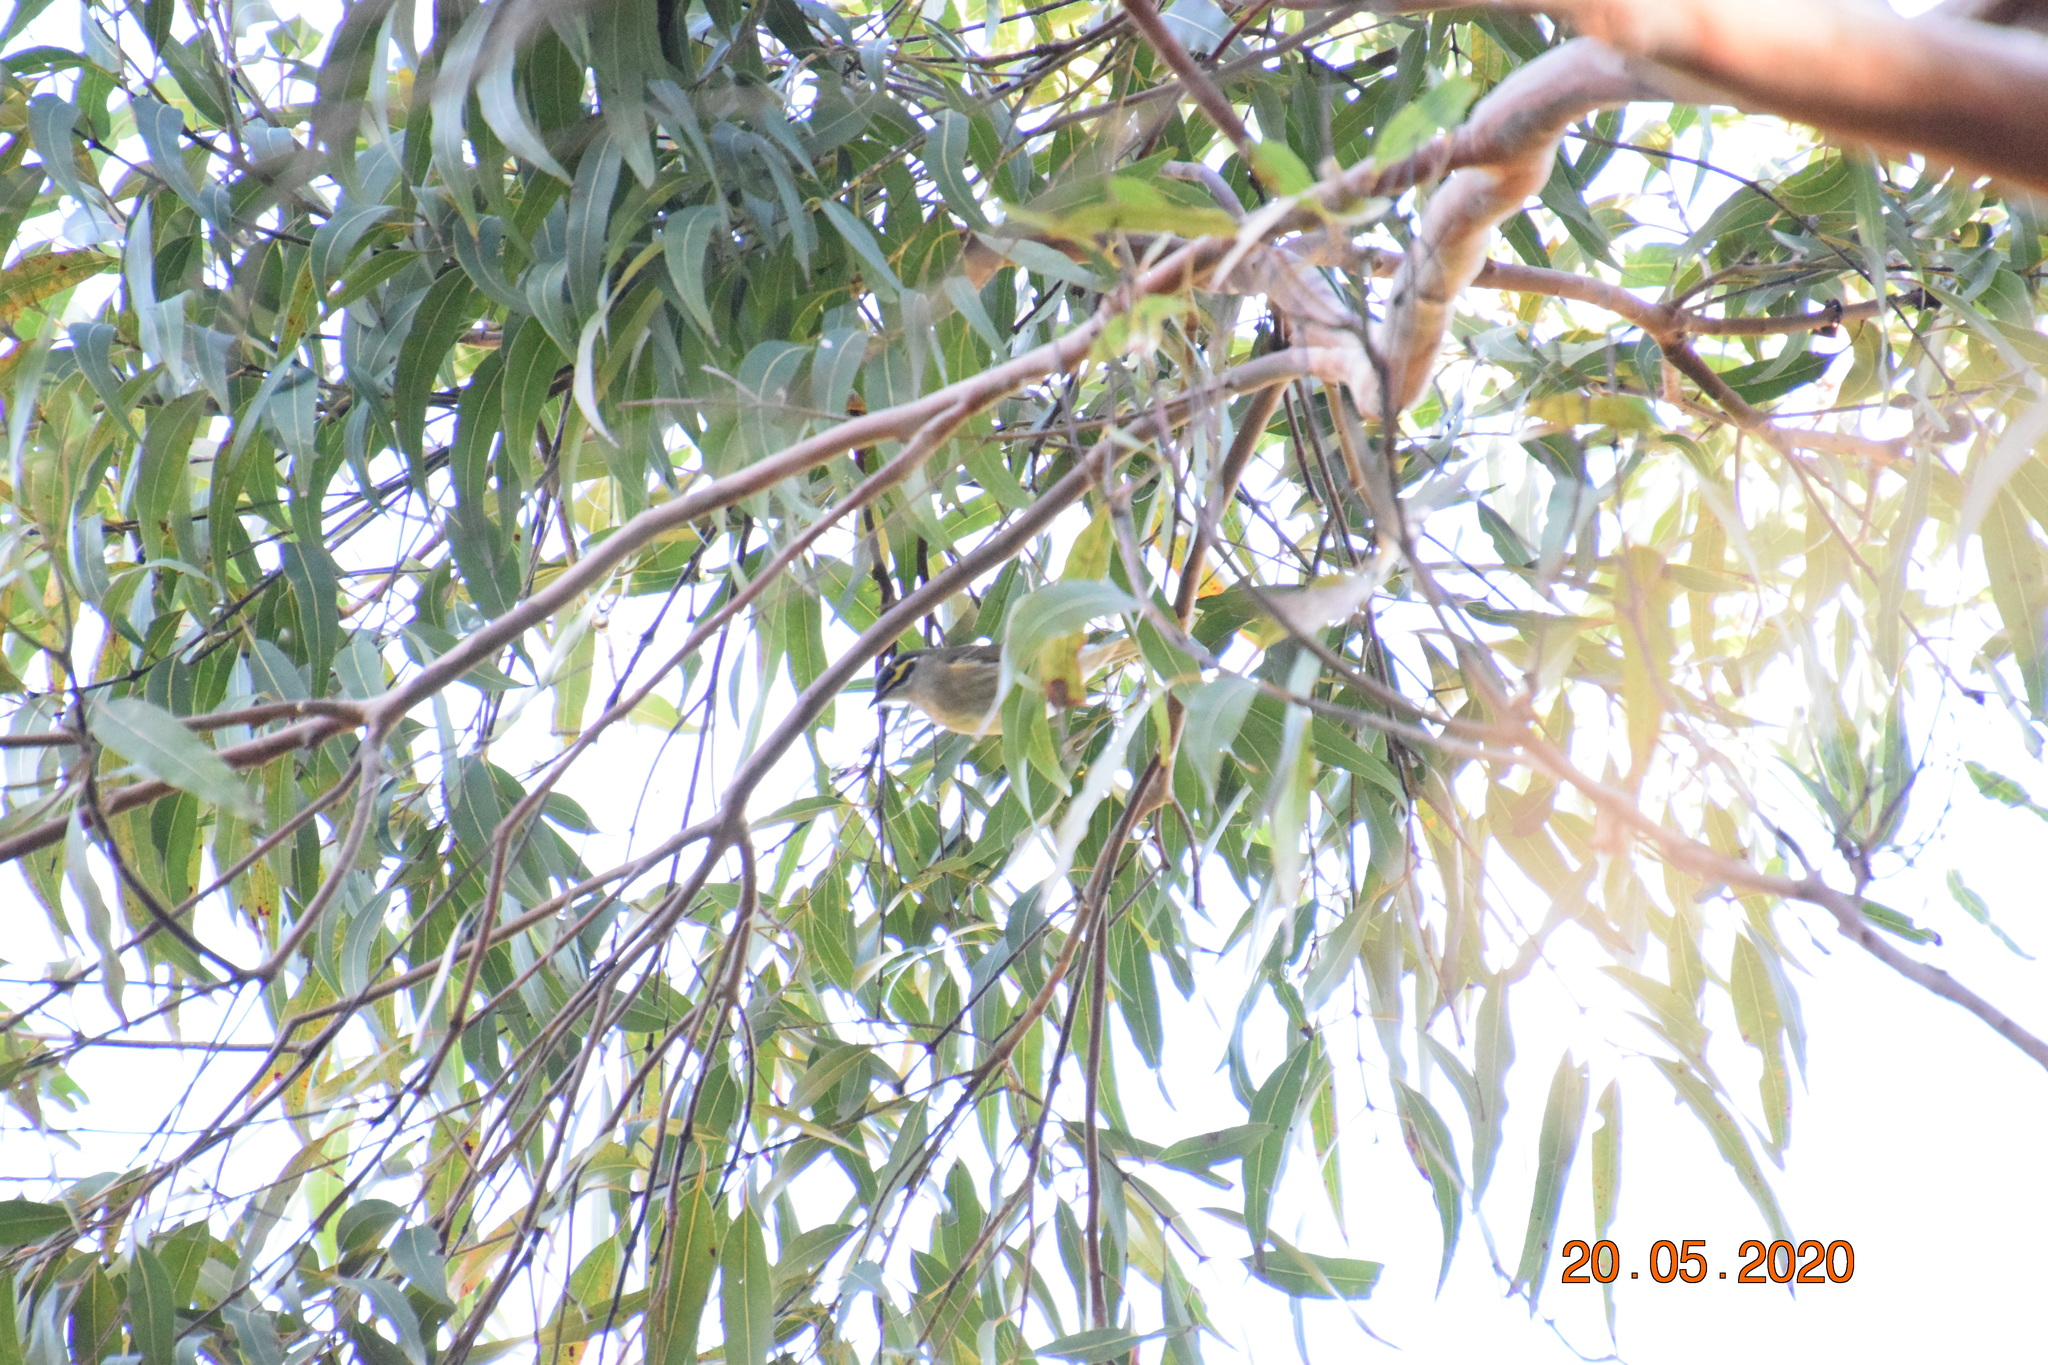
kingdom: Animalia
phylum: Chordata
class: Aves
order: Passeriformes
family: Meliphagidae
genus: Caligavis
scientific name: Caligavis chrysops
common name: Yellow-faced honeyeater
